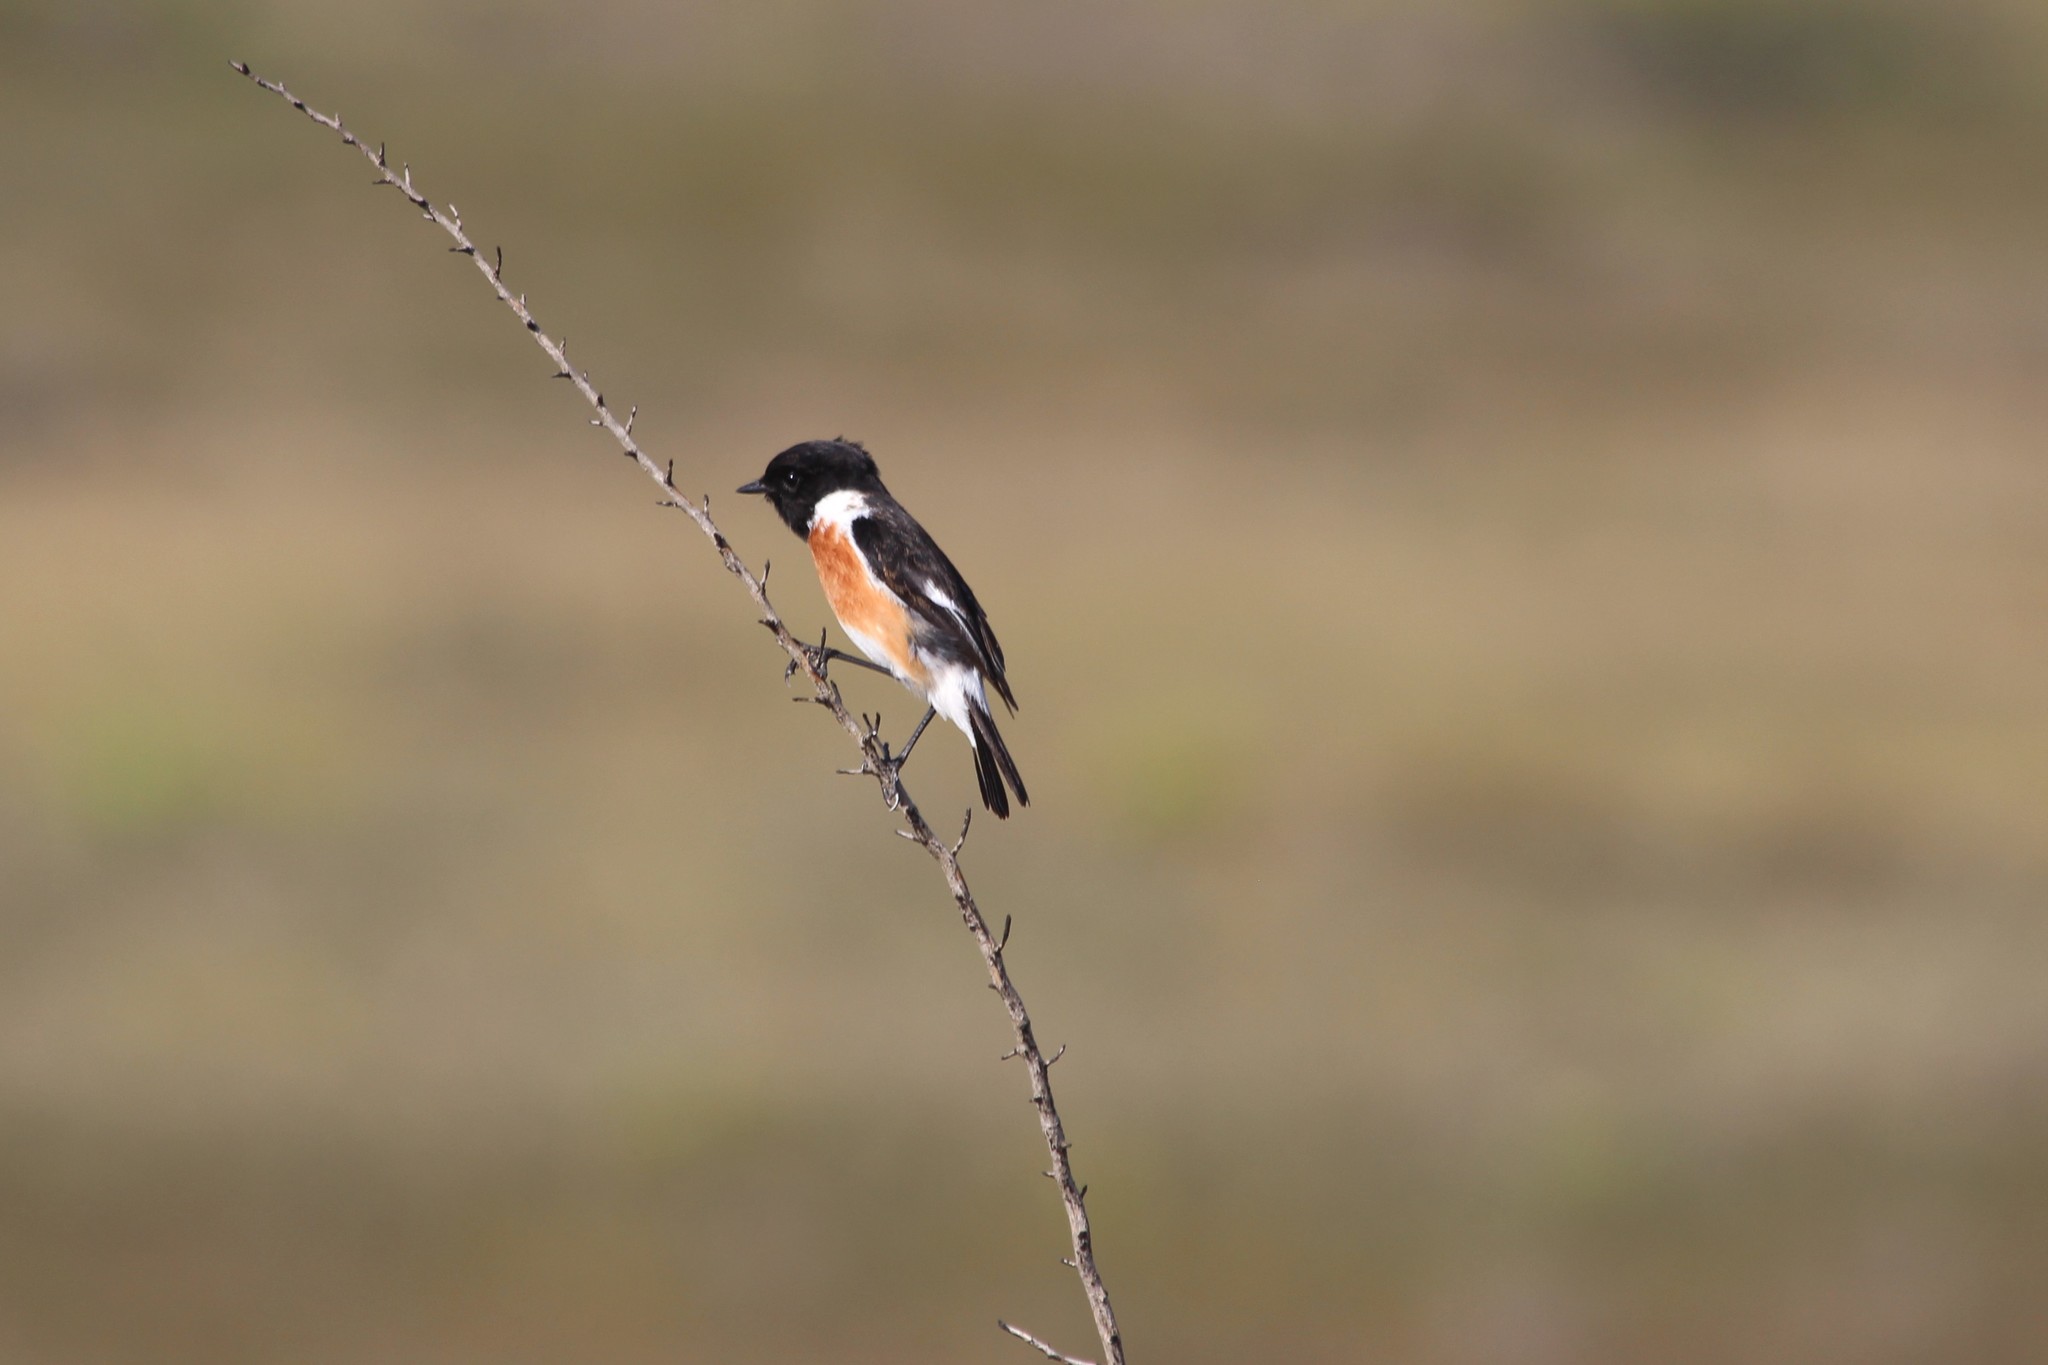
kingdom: Animalia
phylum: Chordata
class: Aves
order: Passeriformes
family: Muscicapidae
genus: Saxicola
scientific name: Saxicola torquatus
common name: African stonechat
